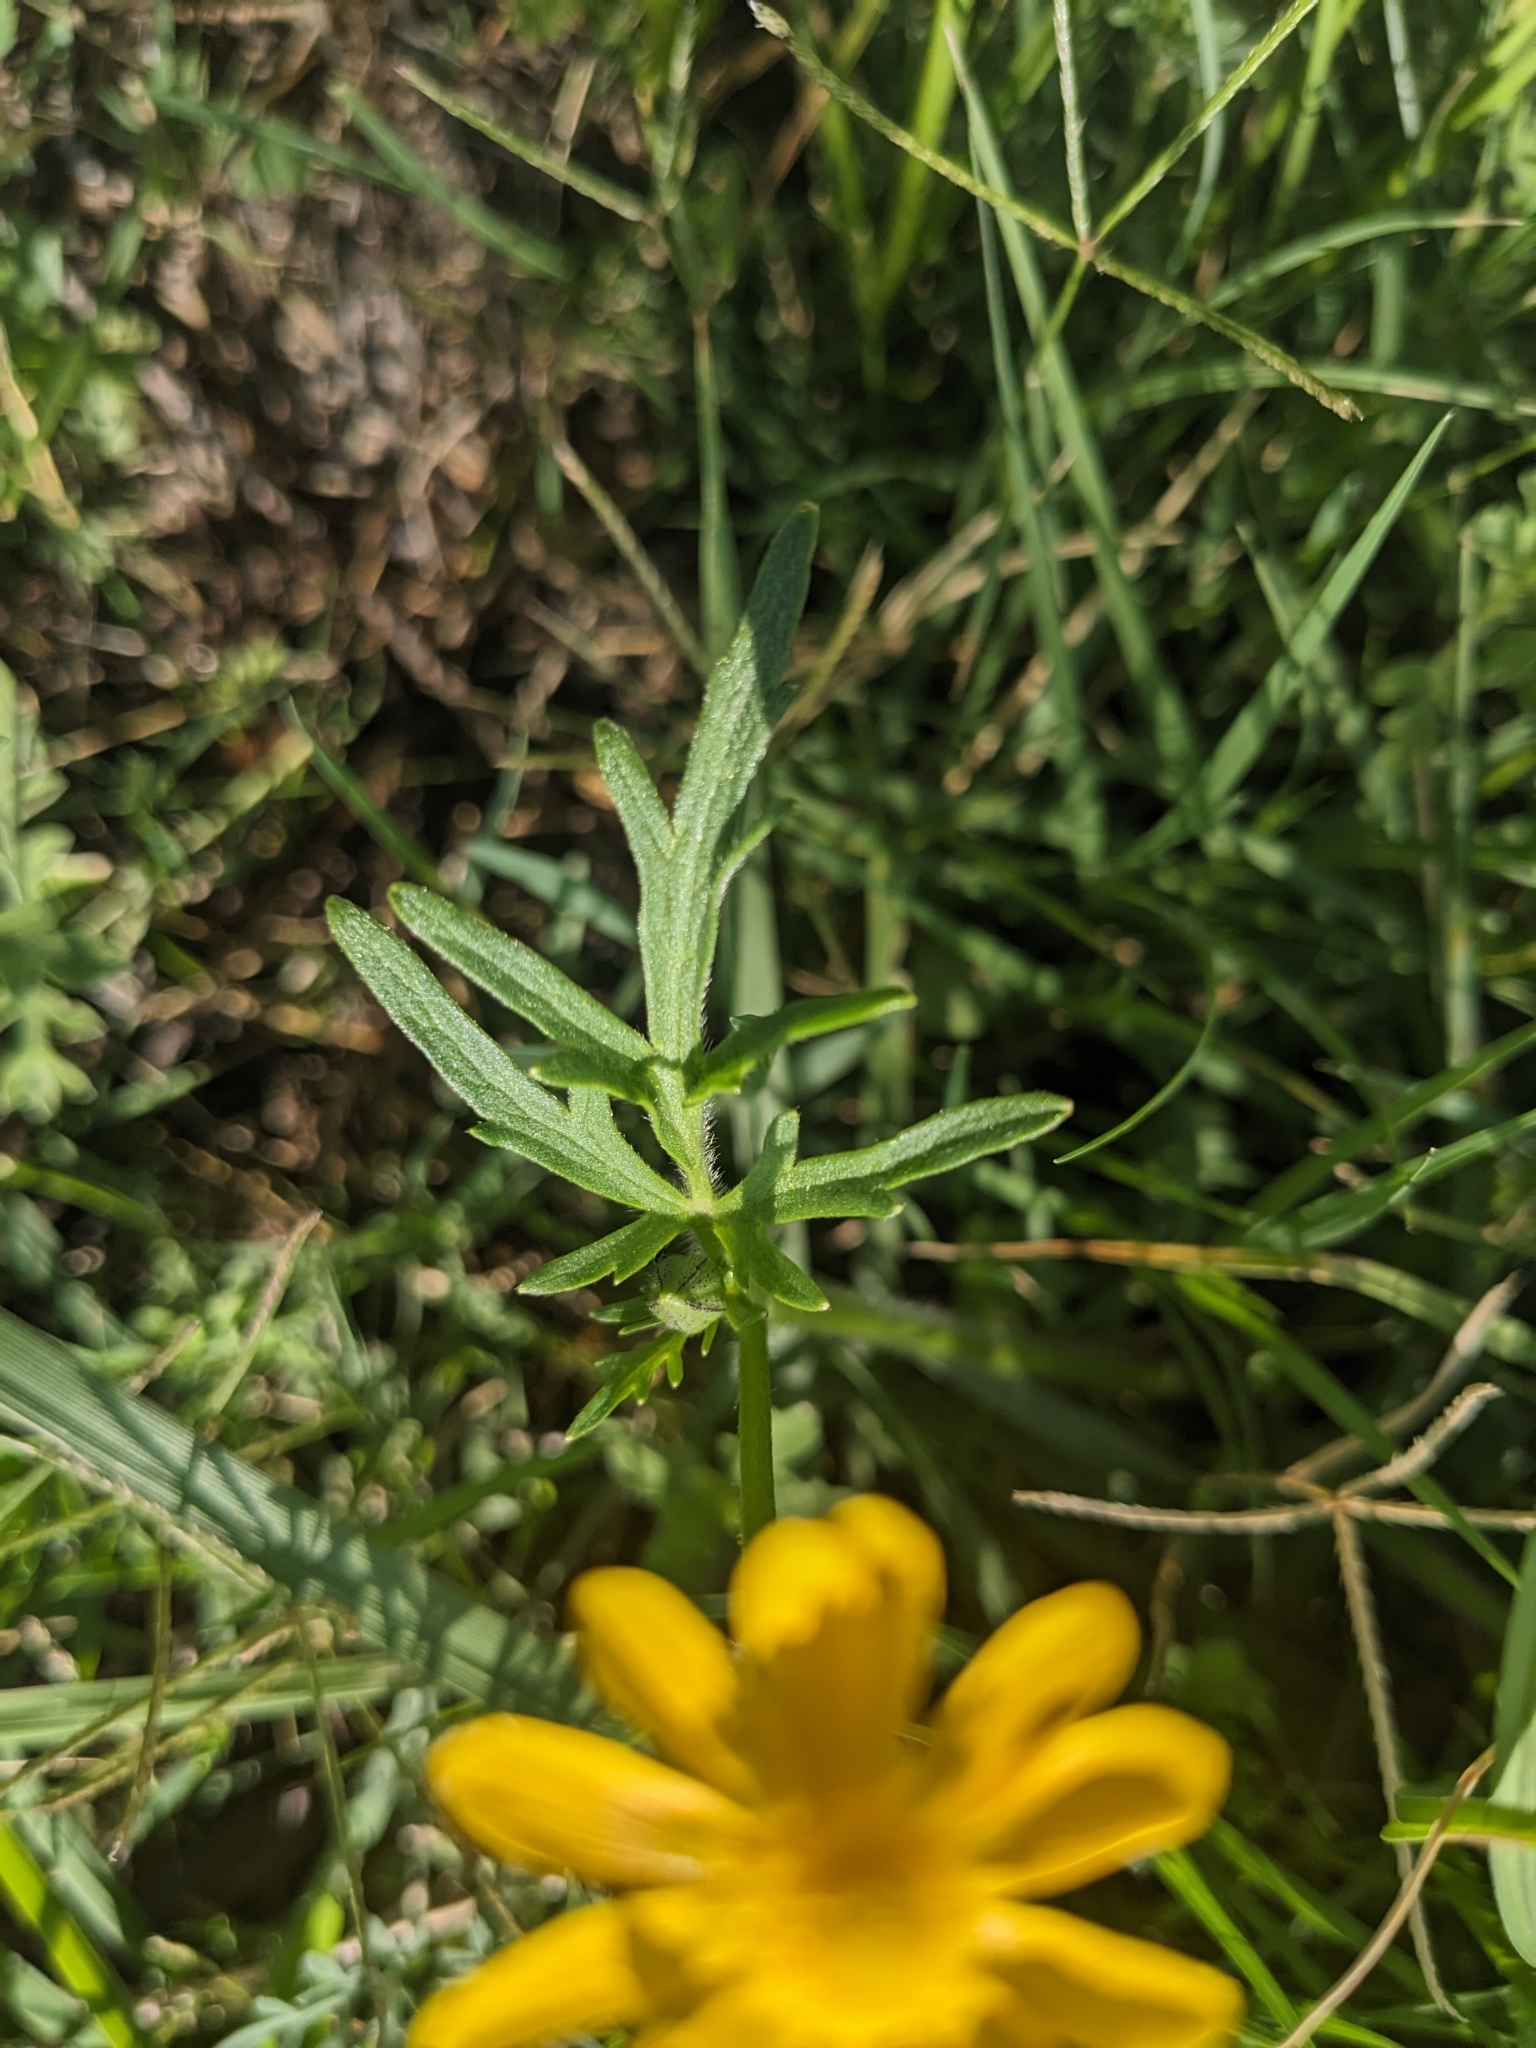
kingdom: Plantae
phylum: Tracheophyta
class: Magnoliopsida
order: Ranunculales
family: Ranunculaceae
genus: Ranunculus
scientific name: Ranunculus macranthus
